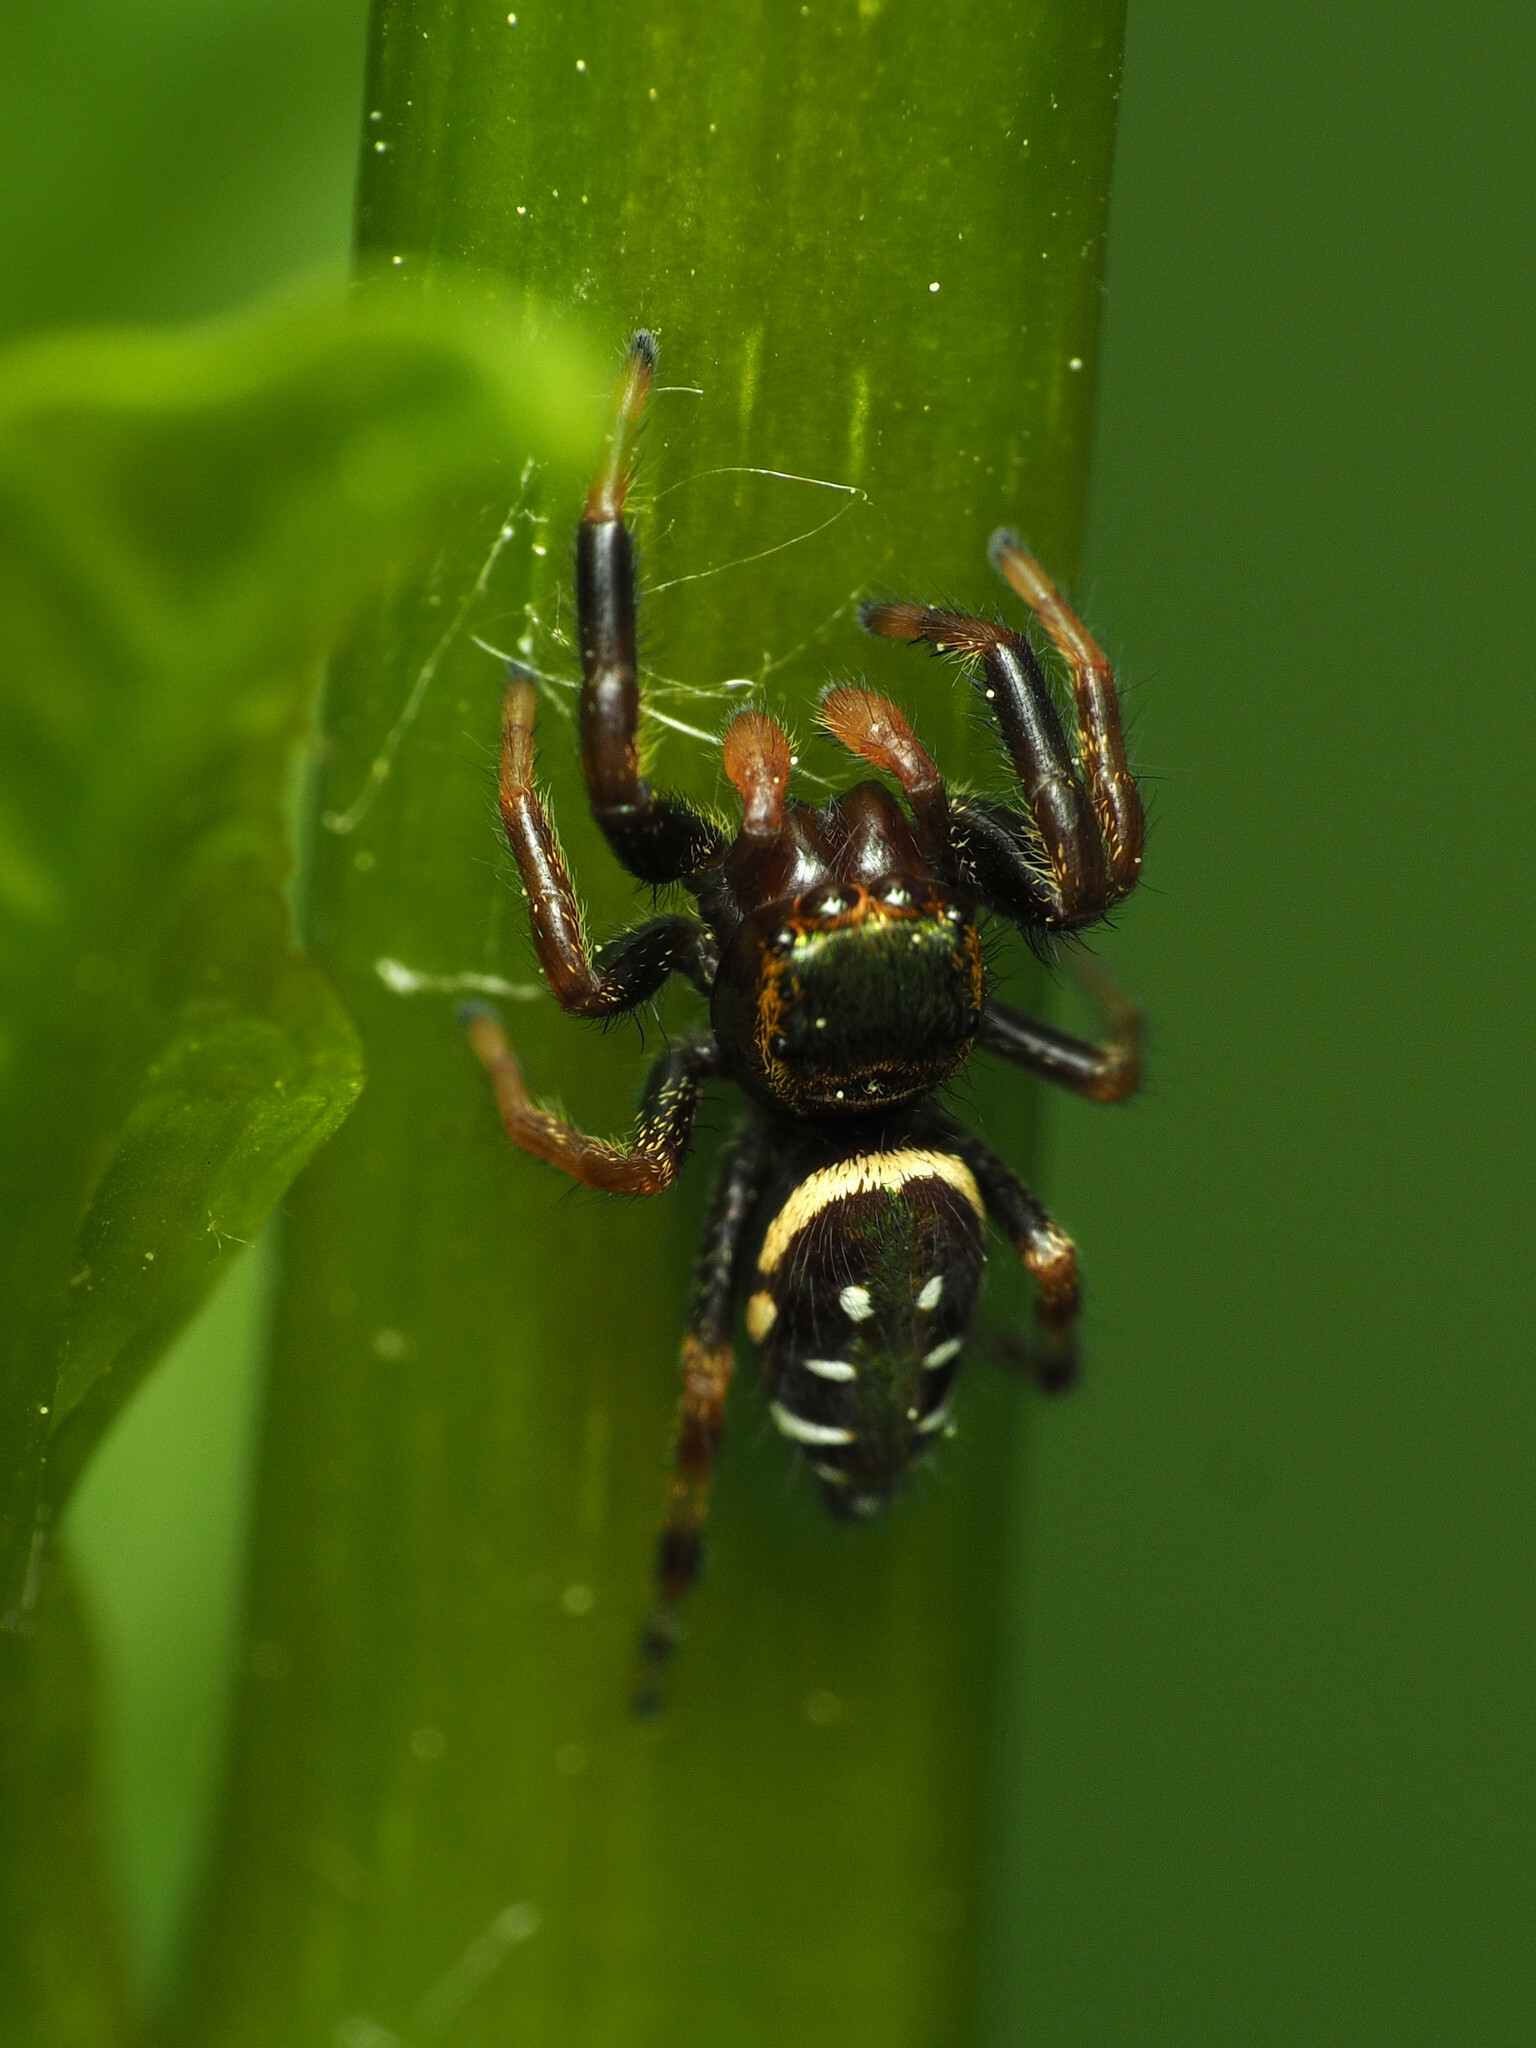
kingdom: Animalia
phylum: Arthropoda
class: Arachnida
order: Araneae
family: Salticidae
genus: Paraphidippus
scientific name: Paraphidippus aurantius
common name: Jumping spiders
